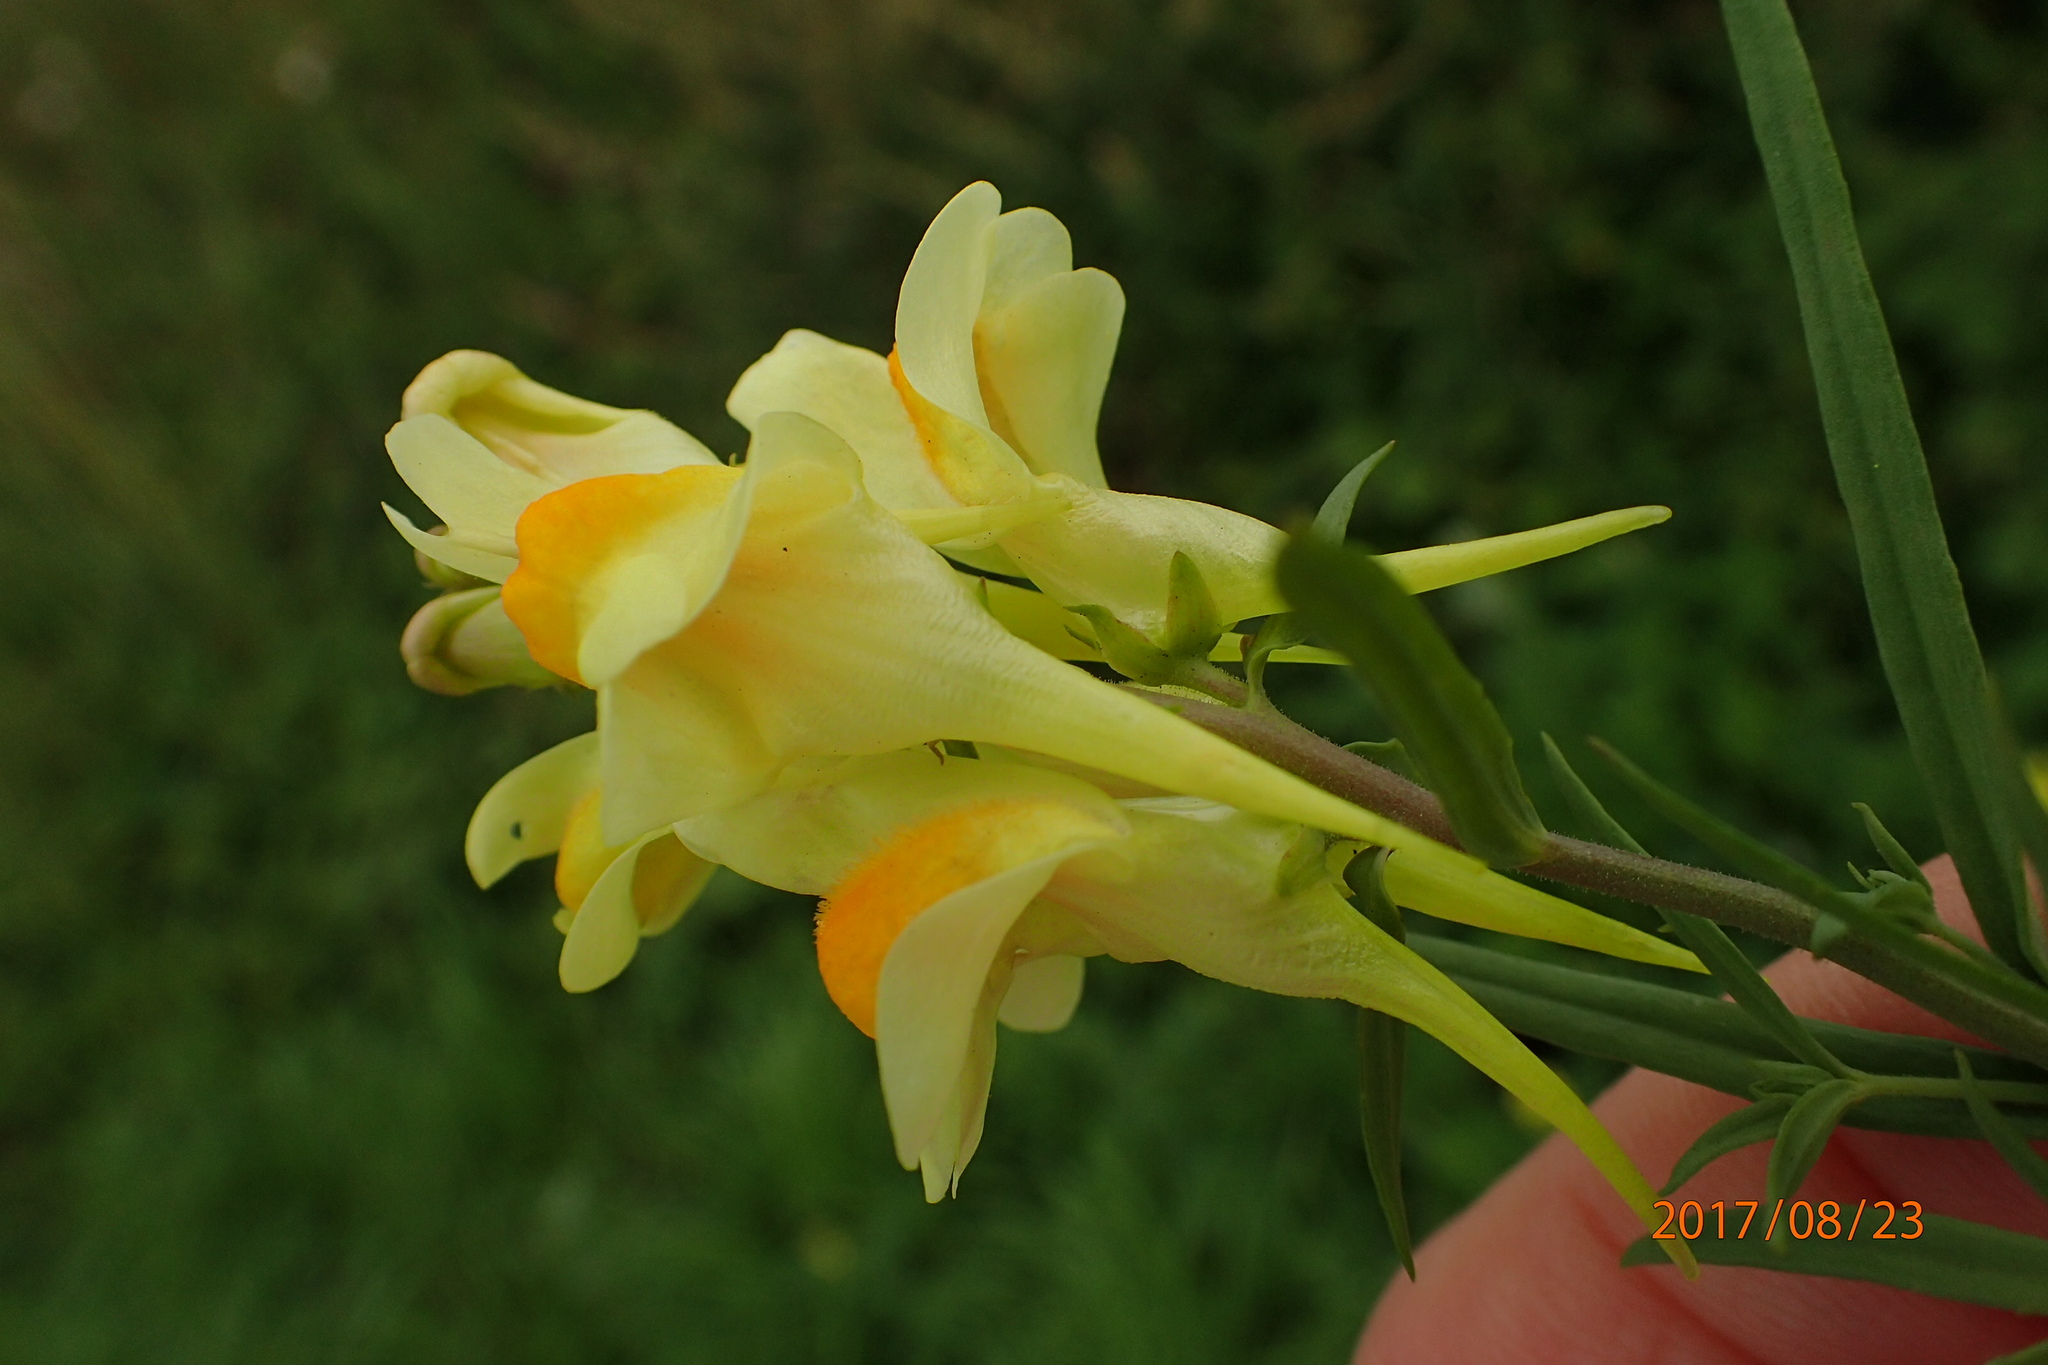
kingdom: Plantae
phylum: Tracheophyta
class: Magnoliopsida
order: Lamiales
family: Plantaginaceae
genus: Linaria
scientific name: Linaria vulgaris
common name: Butter and eggs
